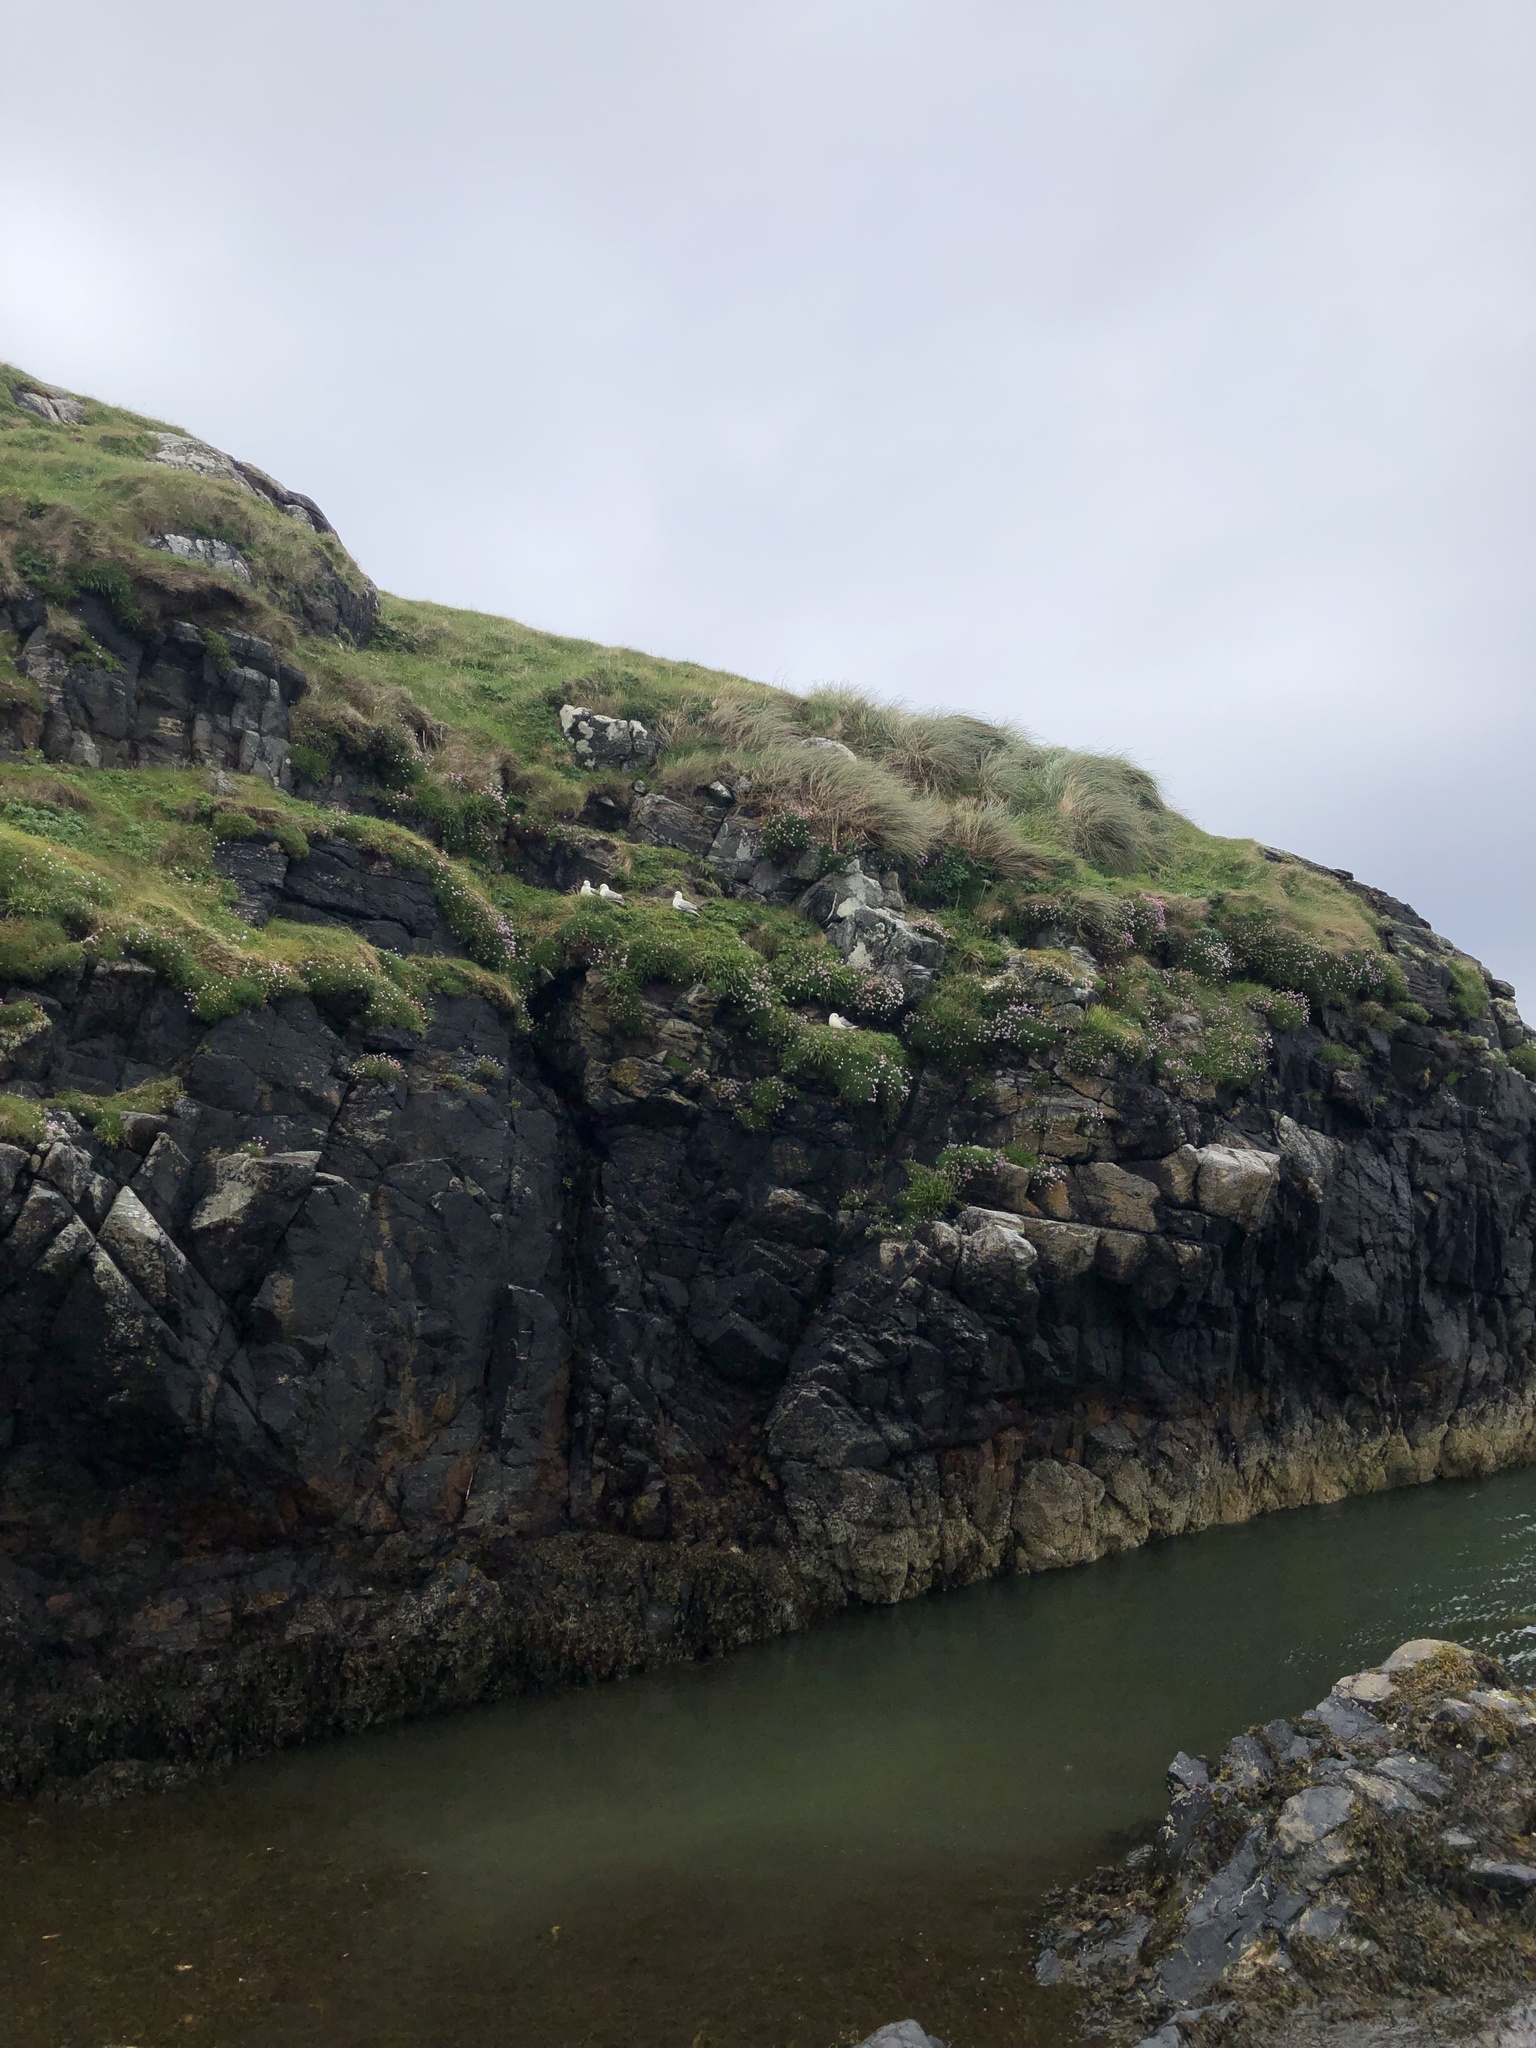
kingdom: Animalia
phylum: Chordata
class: Aves
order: Procellariiformes
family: Procellariidae
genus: Fulmarus
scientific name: Fulmarus glacialis
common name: Northern fulmar
